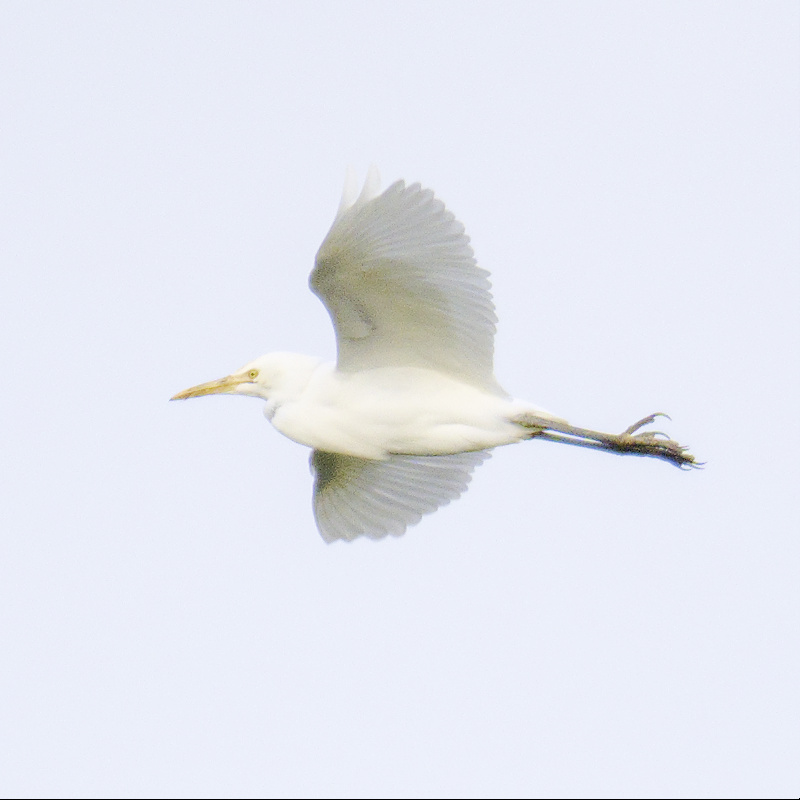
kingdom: Animalia
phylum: Chordata
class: Aves
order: Pelecaniformes
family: Ardeidae
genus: Bubulcus
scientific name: Bubulcus coromandus
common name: Eastern cattle egret
